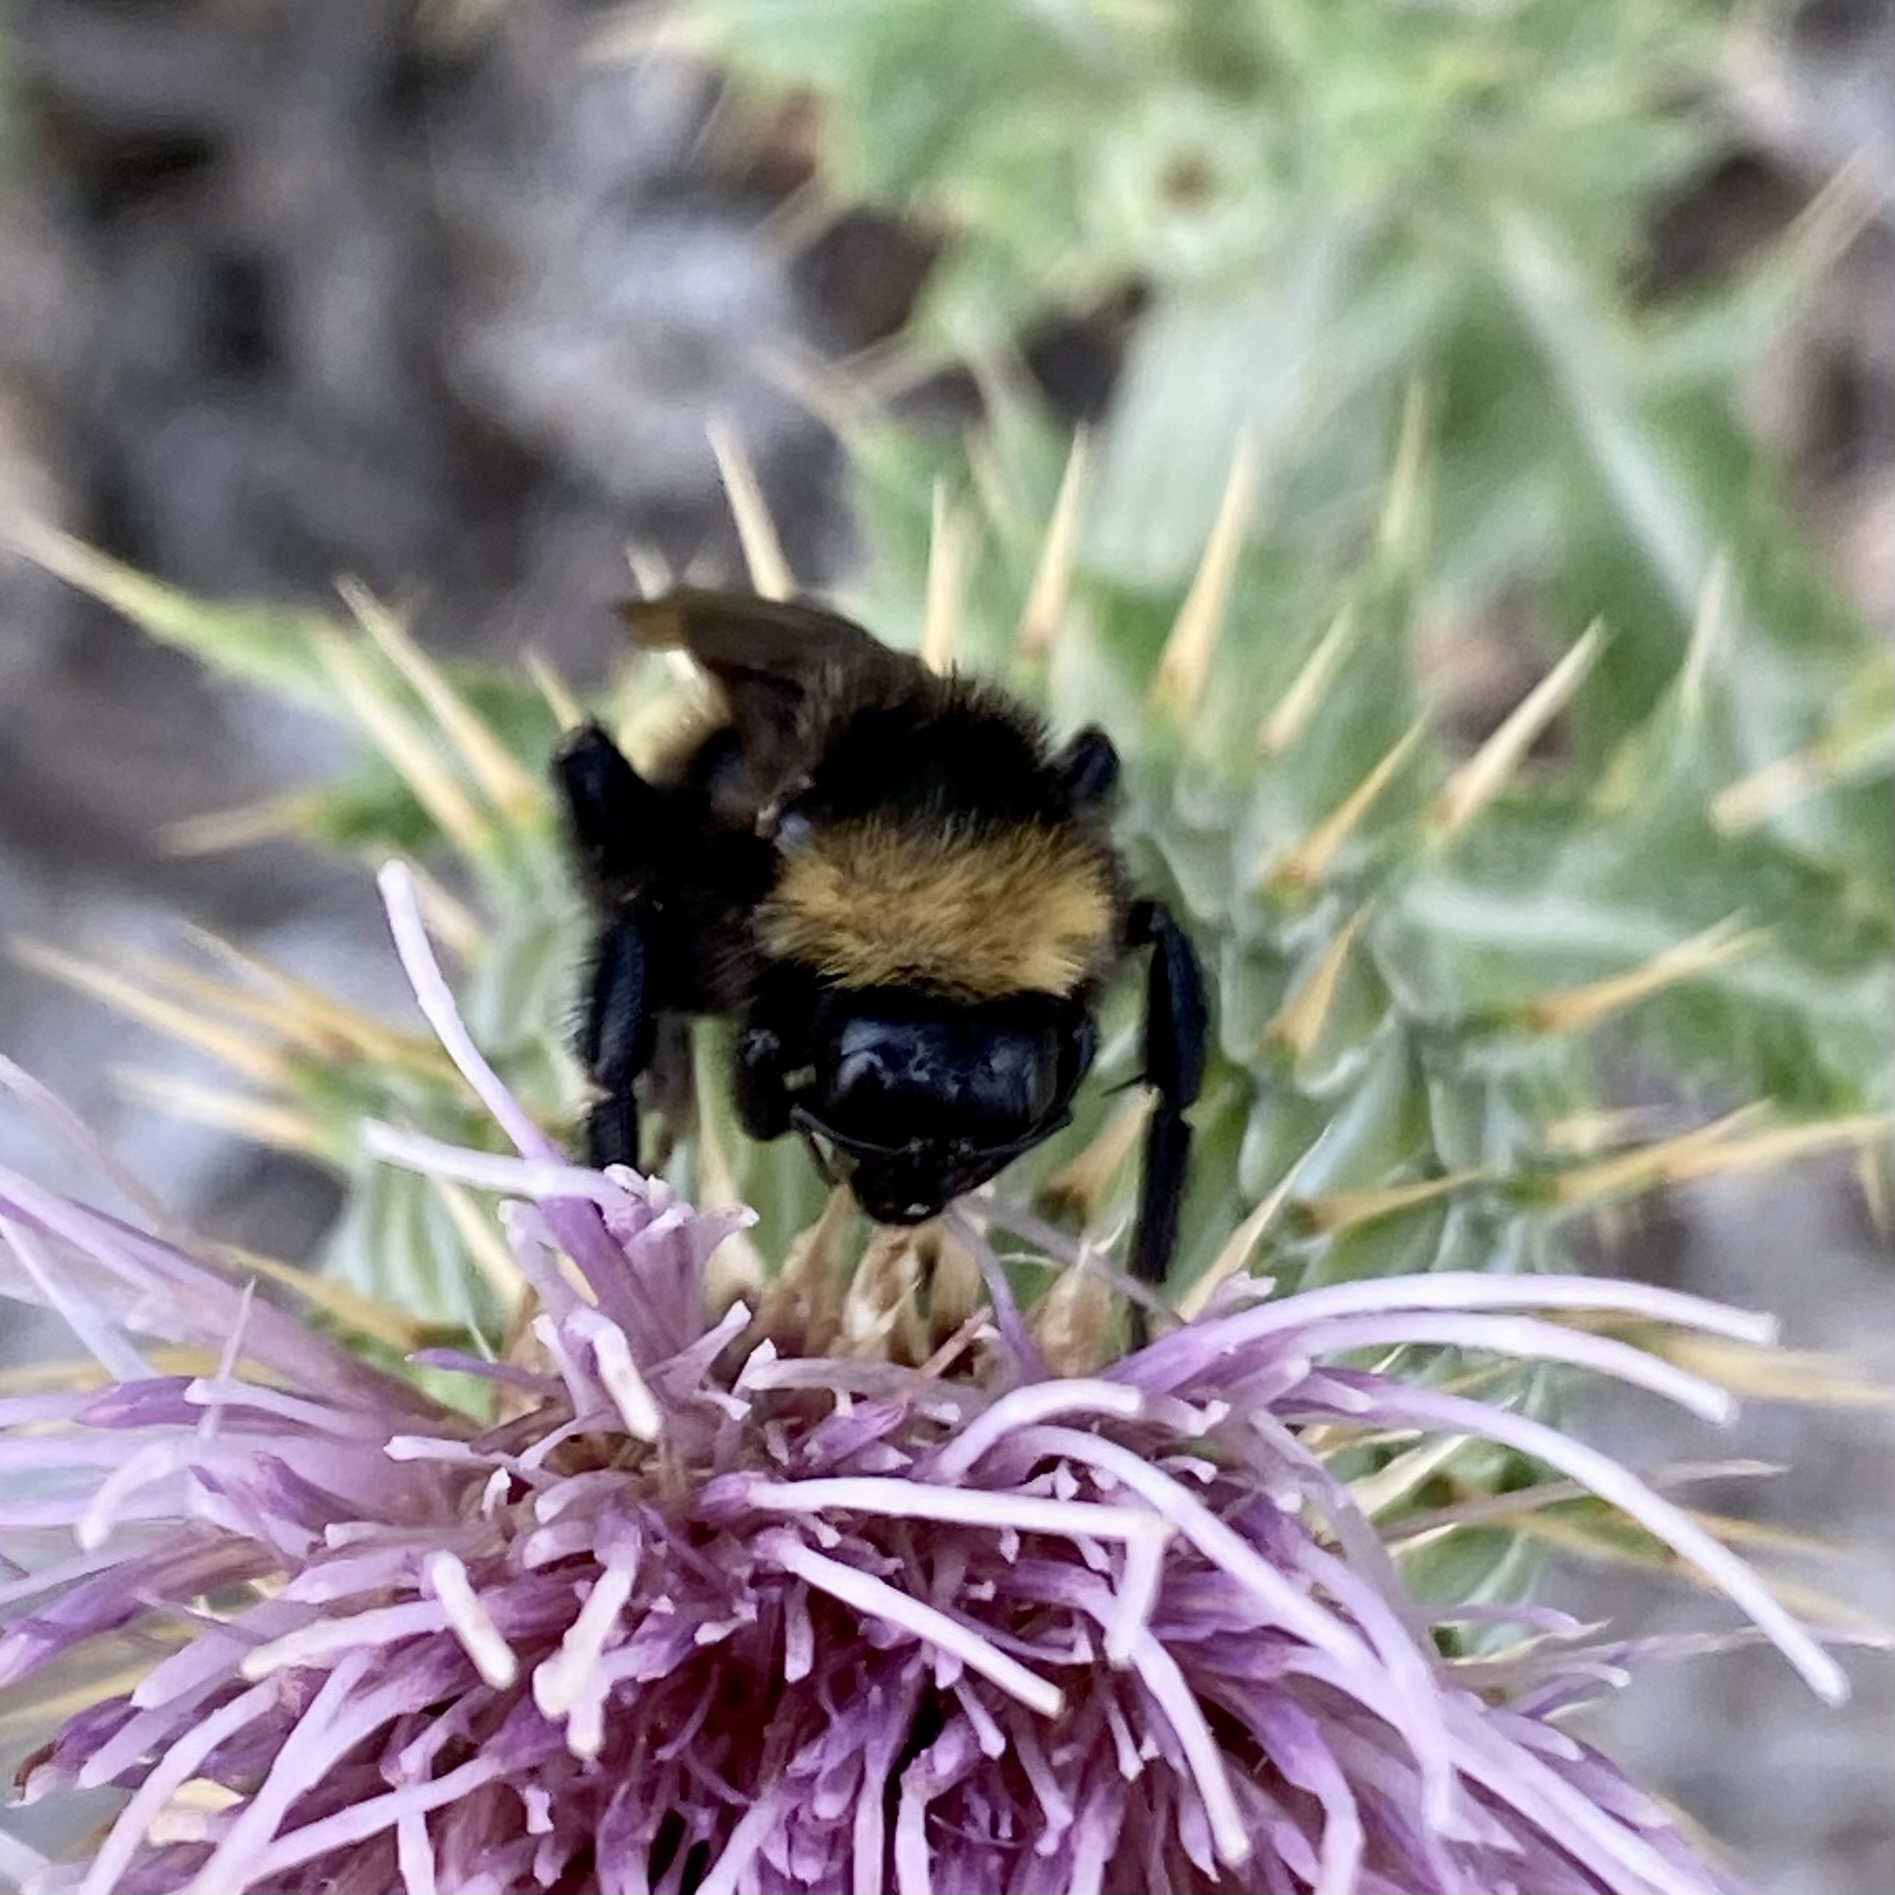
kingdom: Animalia
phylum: Arthropoda
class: Insecta
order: Hymenoptera
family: Apidae
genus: Bombus
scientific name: Bombus pensylvanicus
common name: Bumble bee
